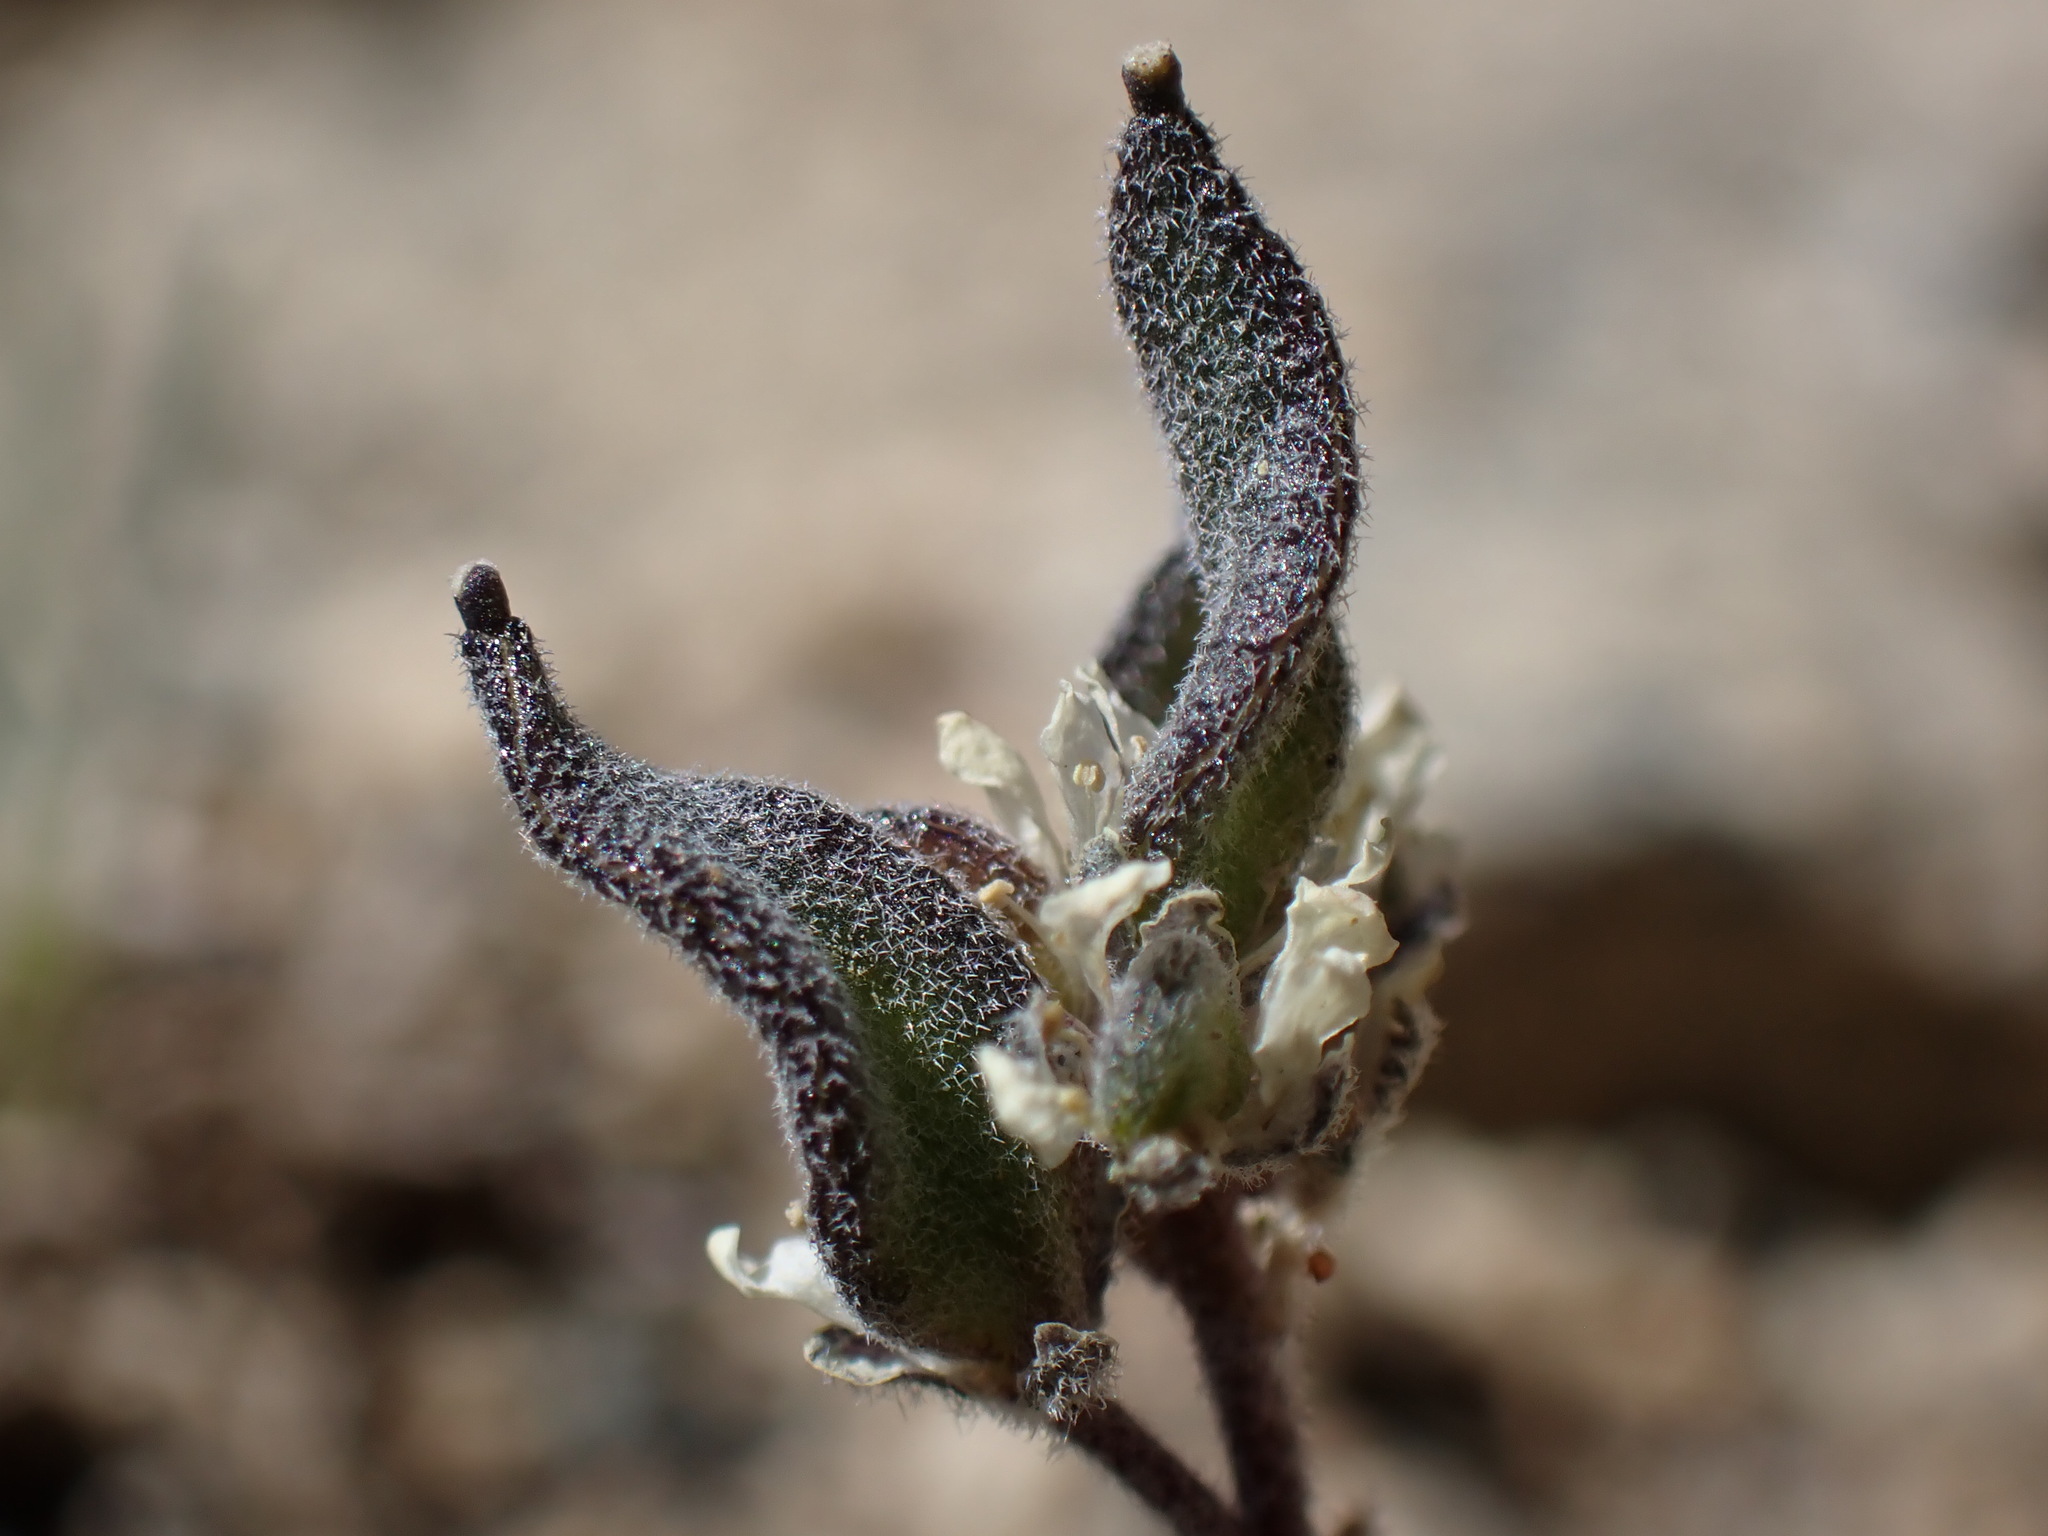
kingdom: Plantae
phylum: Tracheophyta
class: Magnoliopsida
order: Brassicales
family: Brassicaceae
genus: Draba
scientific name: Draba breweri
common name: Cushion draba
